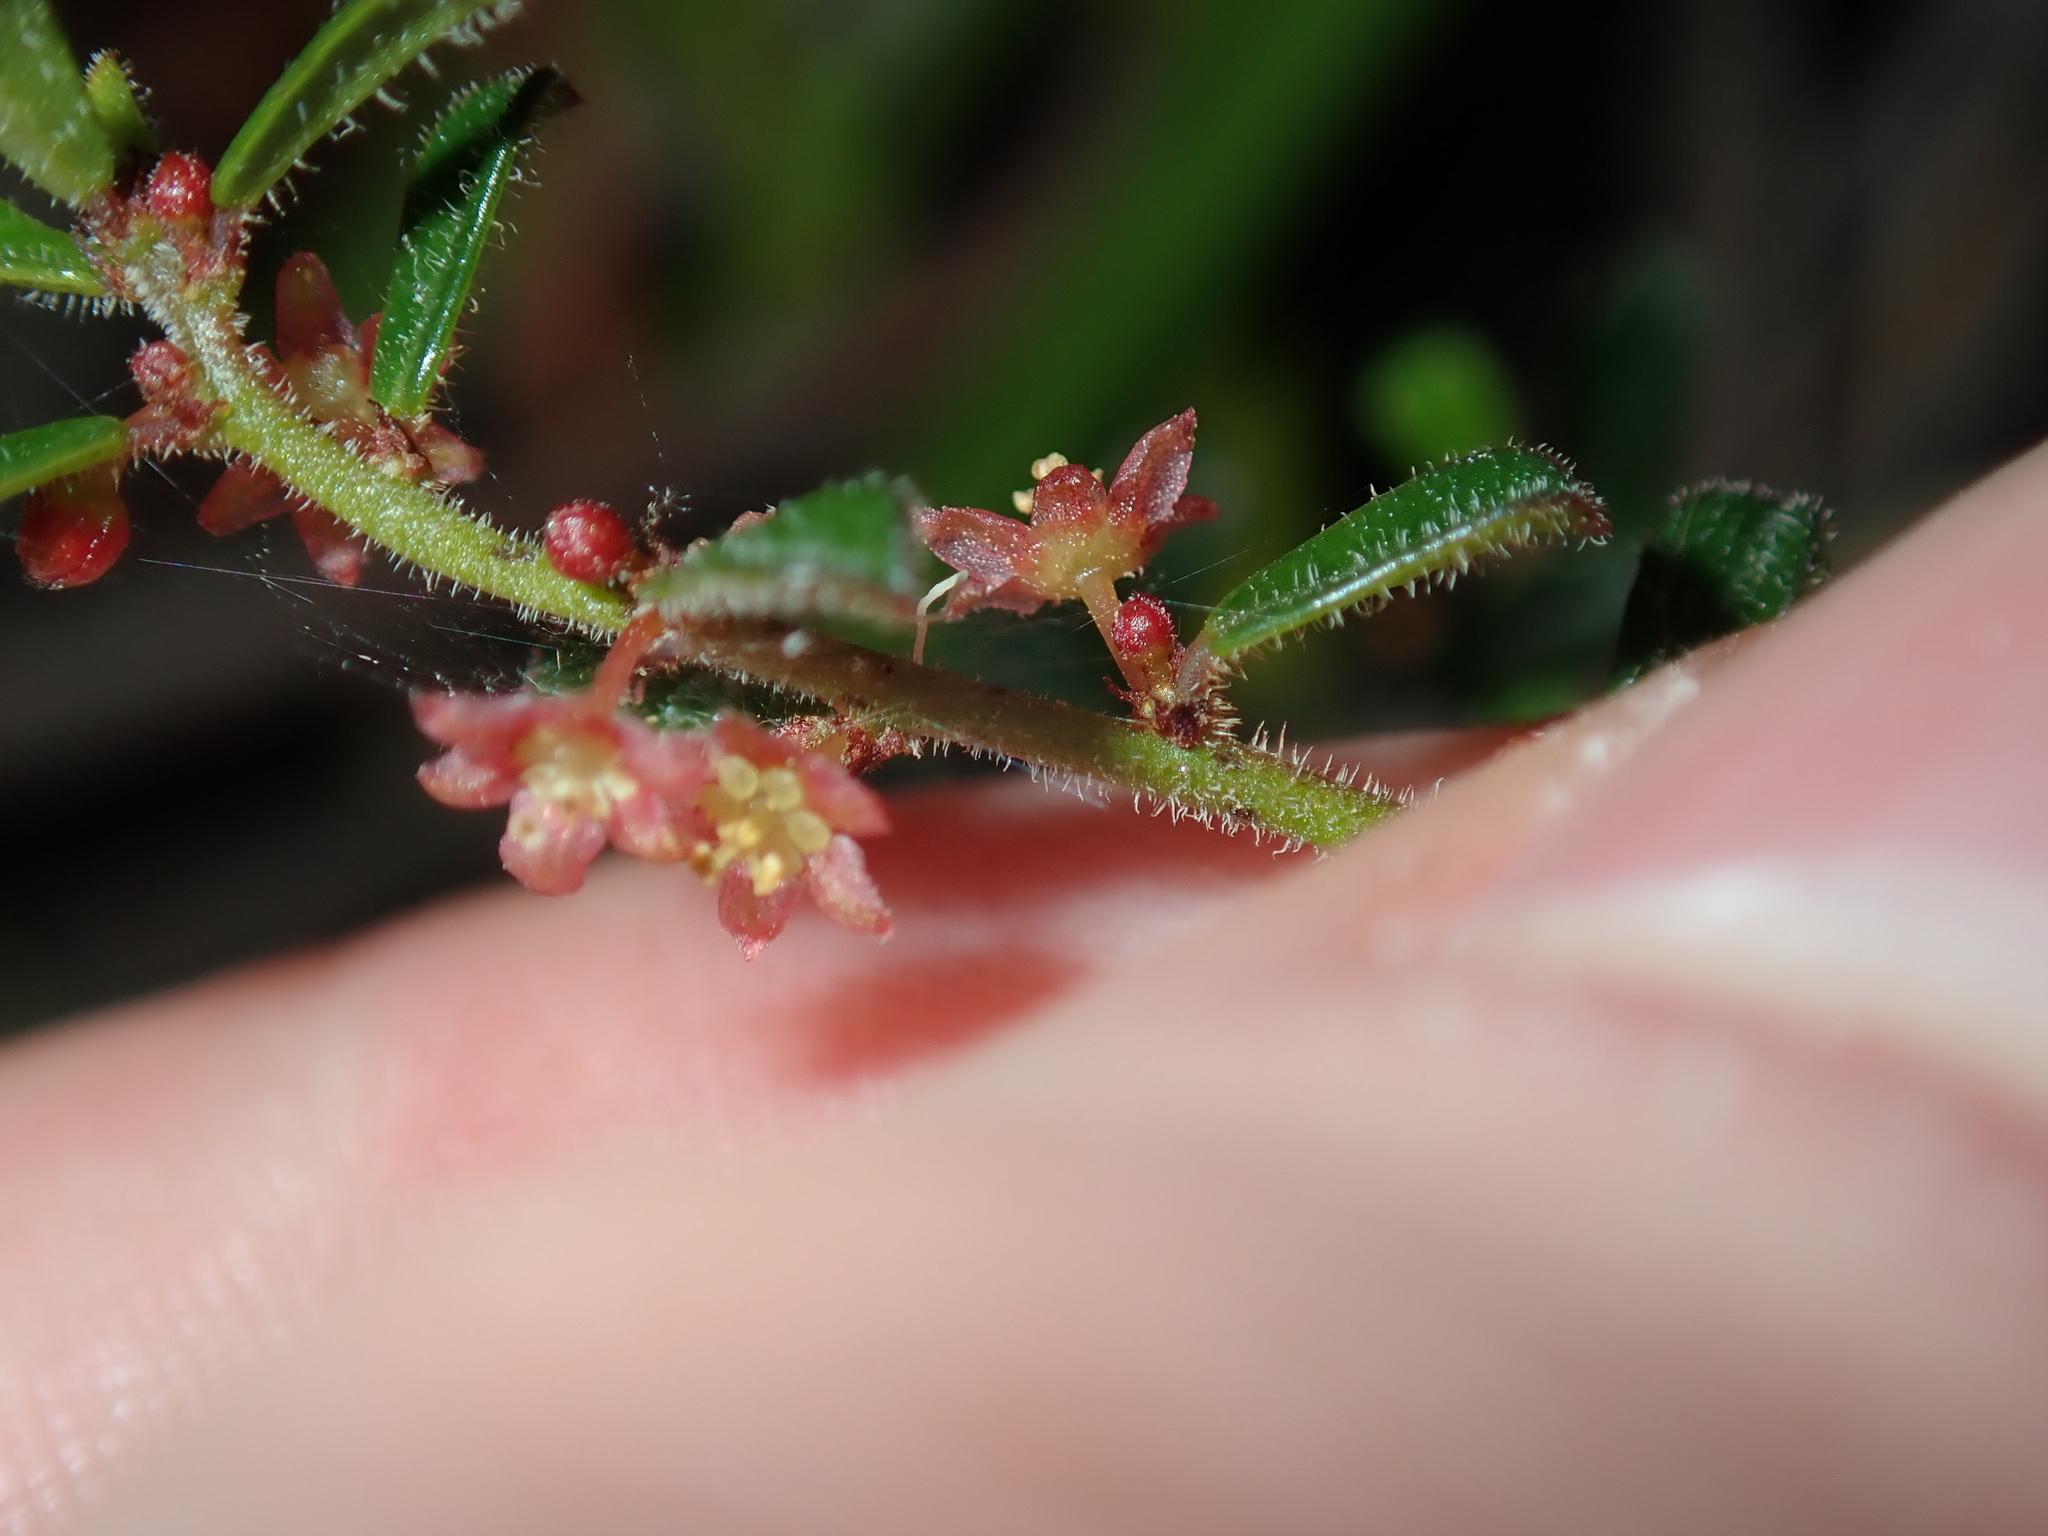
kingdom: Plantae
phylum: Tracheophyta
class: Magnoliopsida
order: Malpighiales
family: Phyllanthaceae
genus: Phyllanthus
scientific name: Phyllanthus hirtellus
